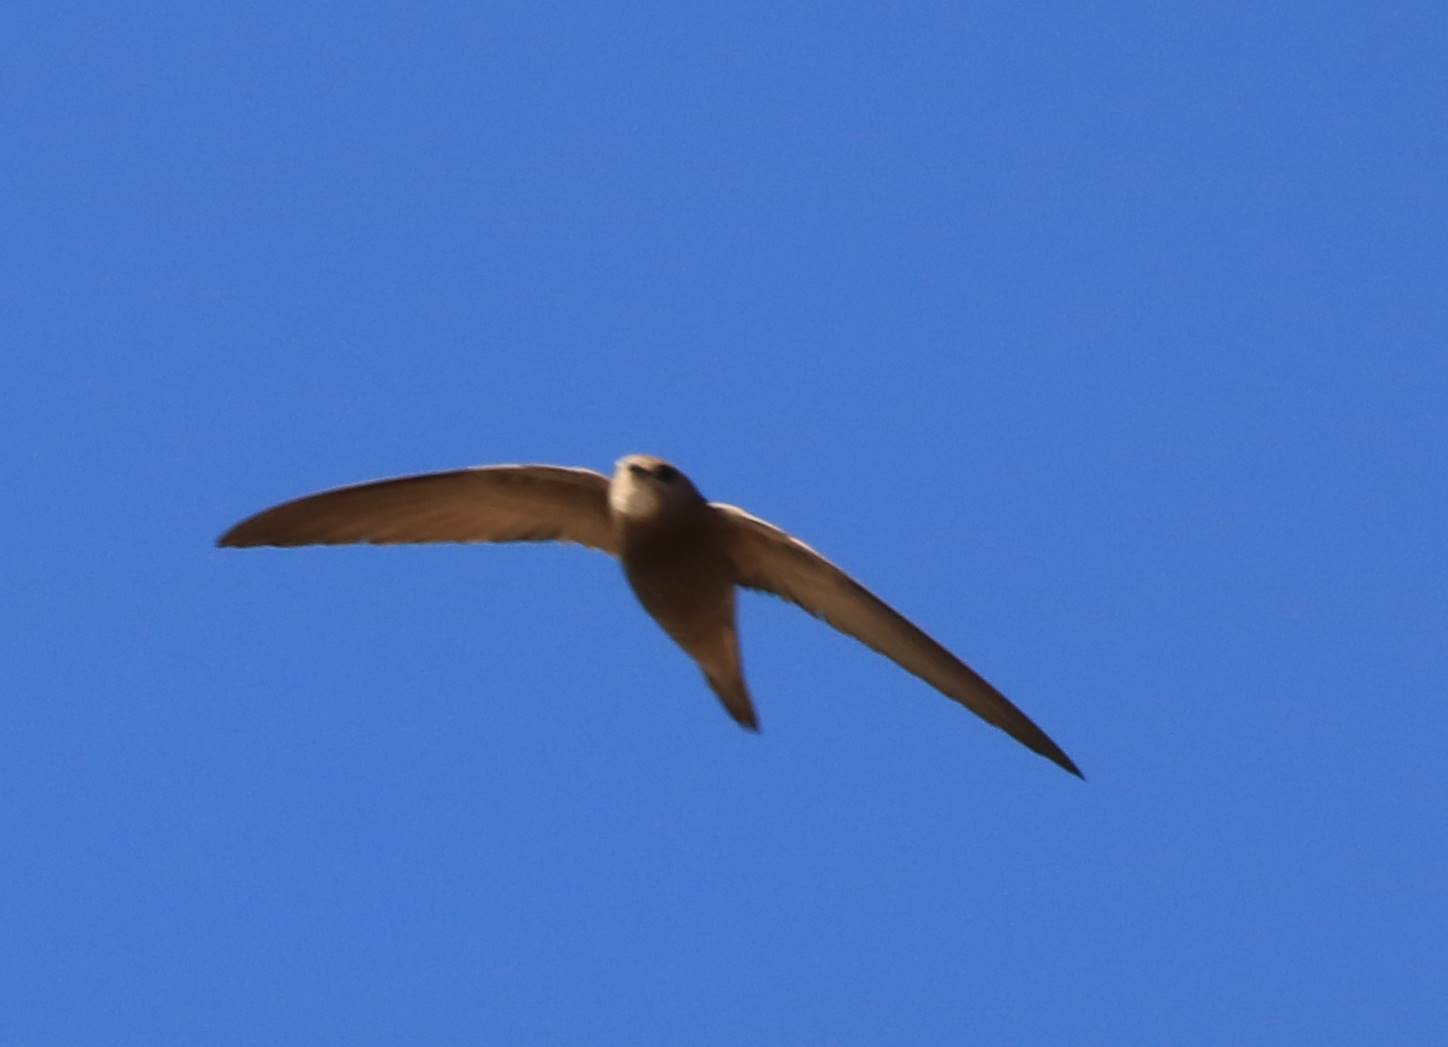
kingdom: Animalia
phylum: Chordata
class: Aves
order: Apodiformes
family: Apodidae
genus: Apus
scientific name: Apus pallidus
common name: Pallid swift
